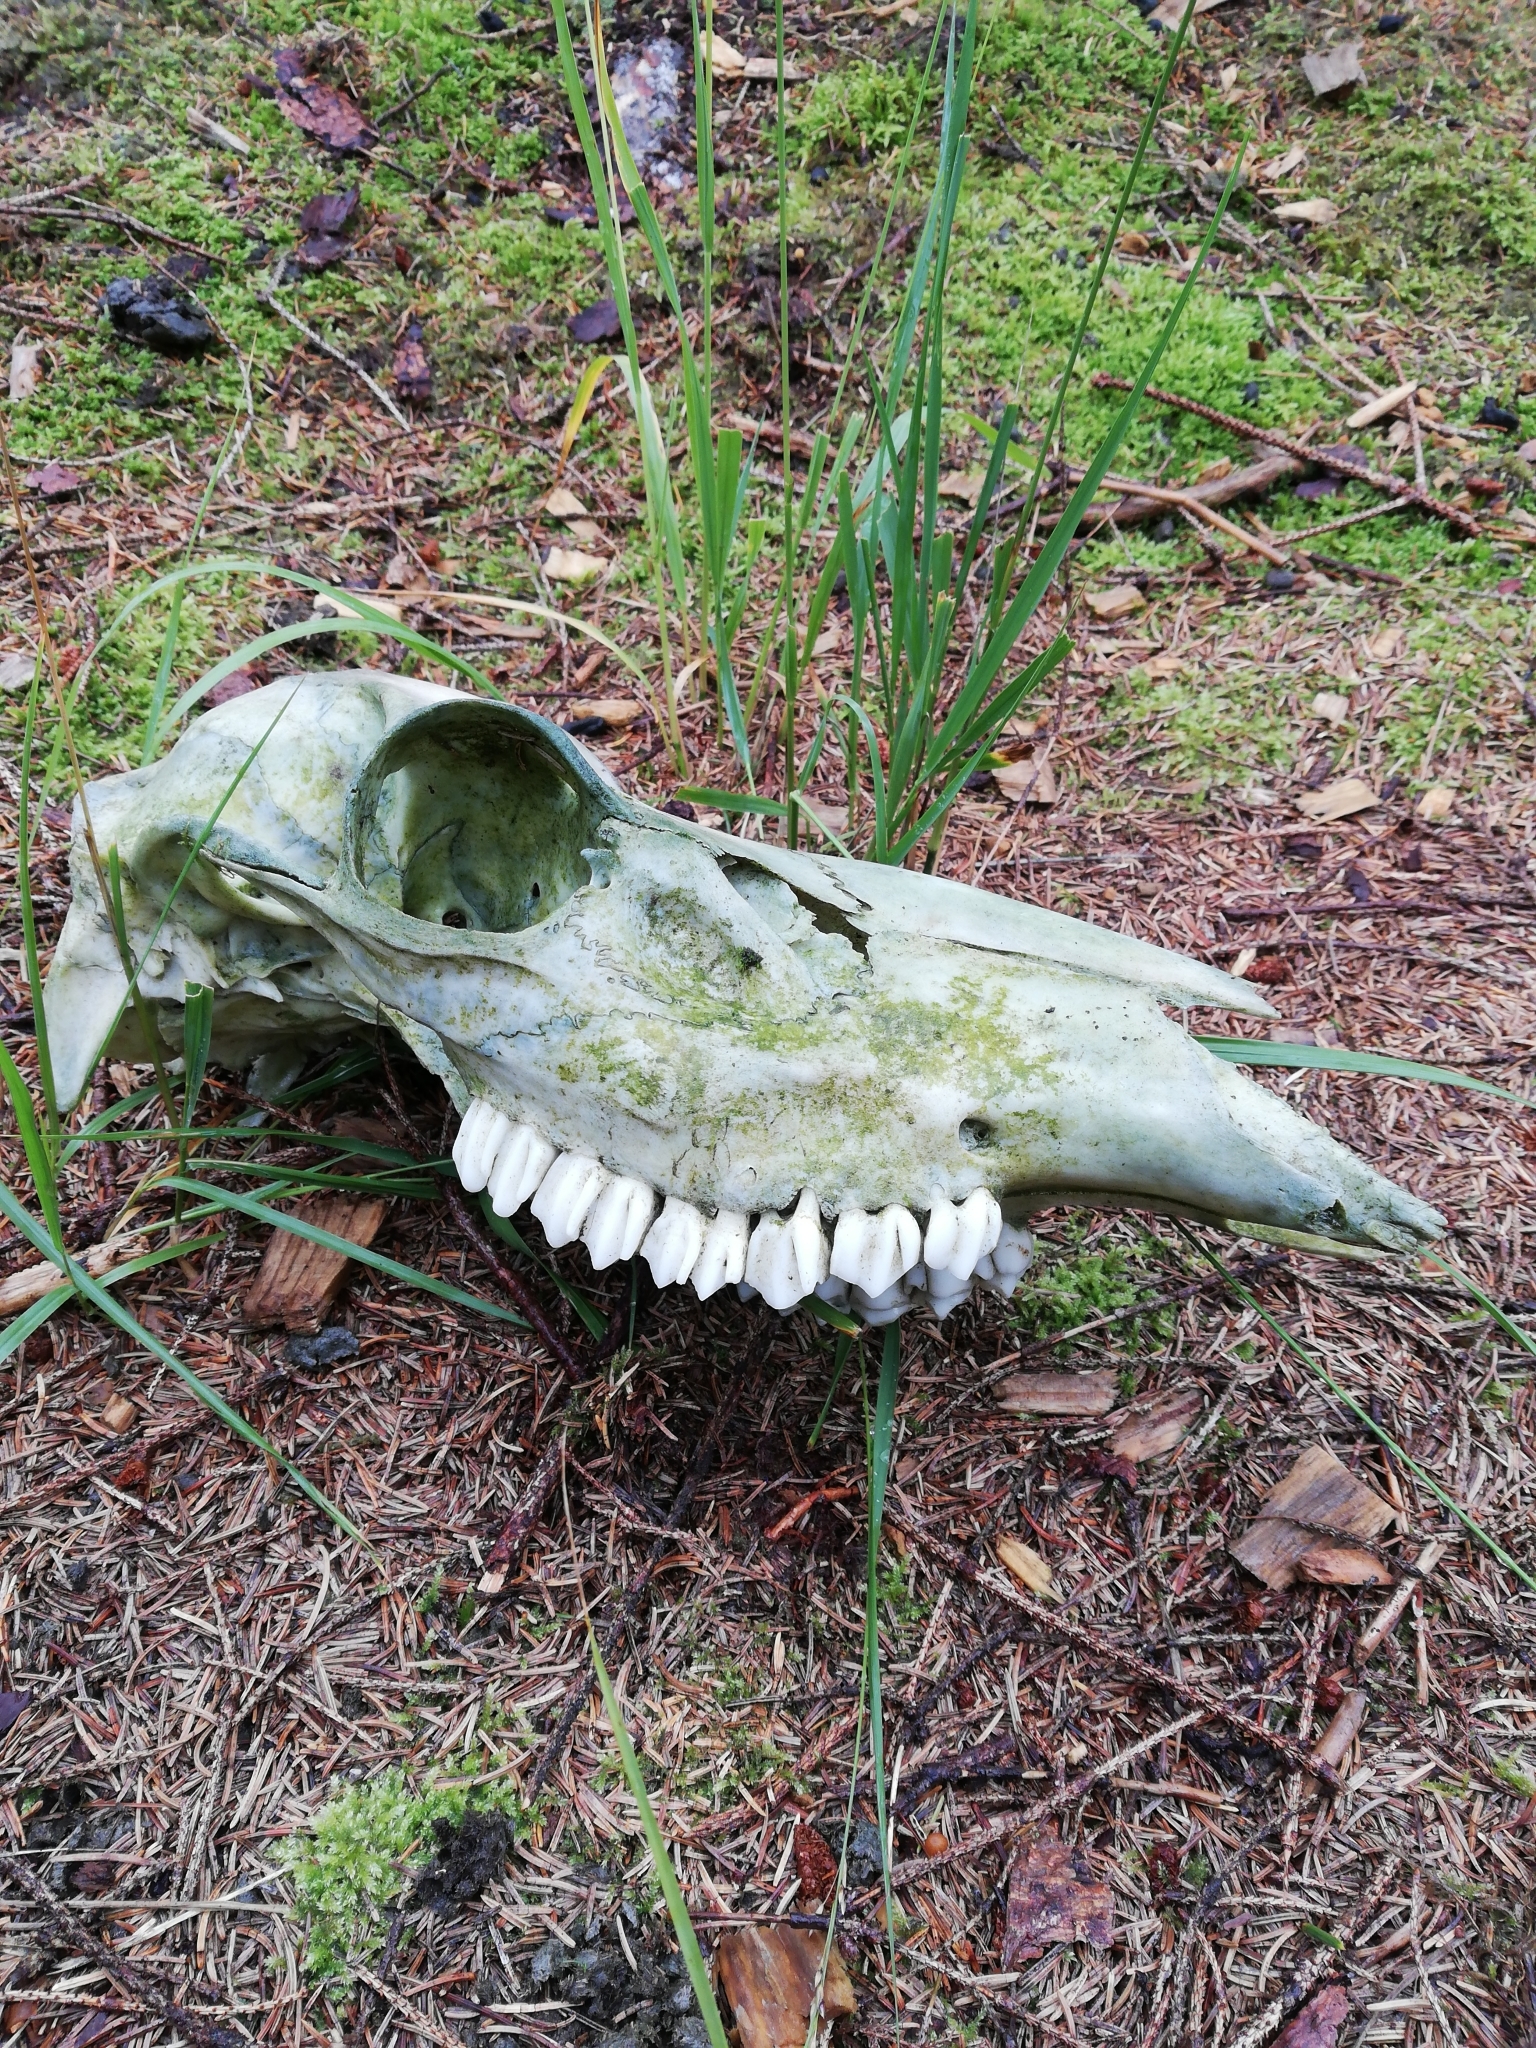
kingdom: Animalia
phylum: Chordata
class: Mammalia
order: Artiodactyla
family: Cervidae
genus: Cervus
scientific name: Cervus elaphus
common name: Red deer
